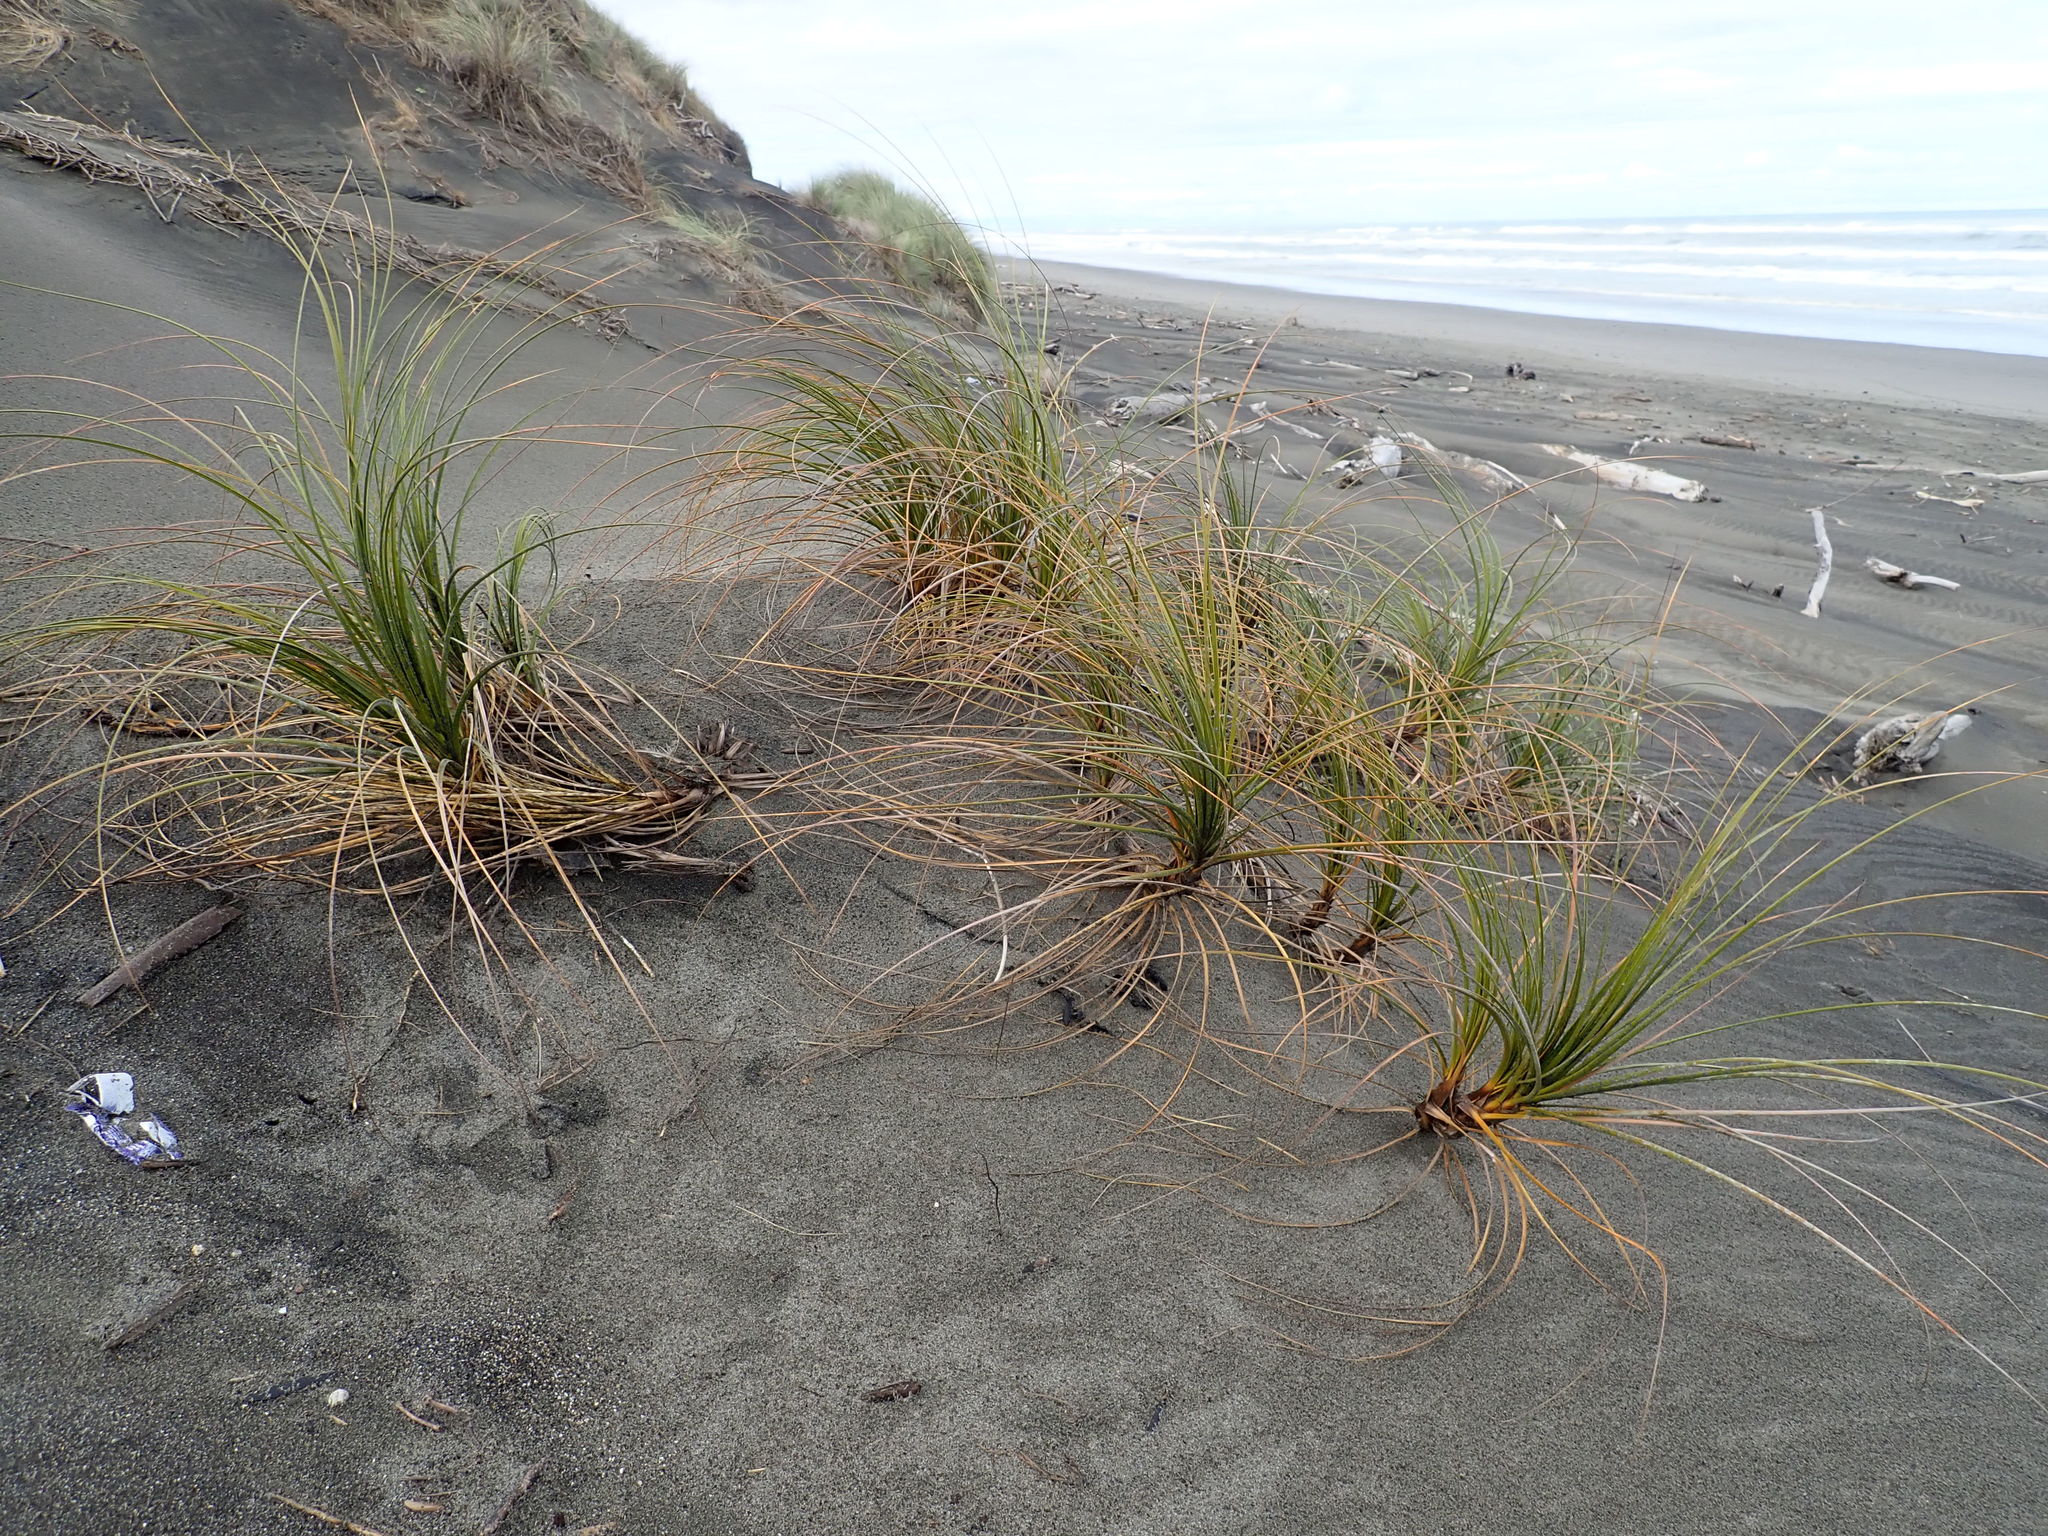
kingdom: Plantae
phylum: Tracheophyta
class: Liliopsida
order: Poales
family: Cyperaceae
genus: Ficinia
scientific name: Ficinia spiralis
